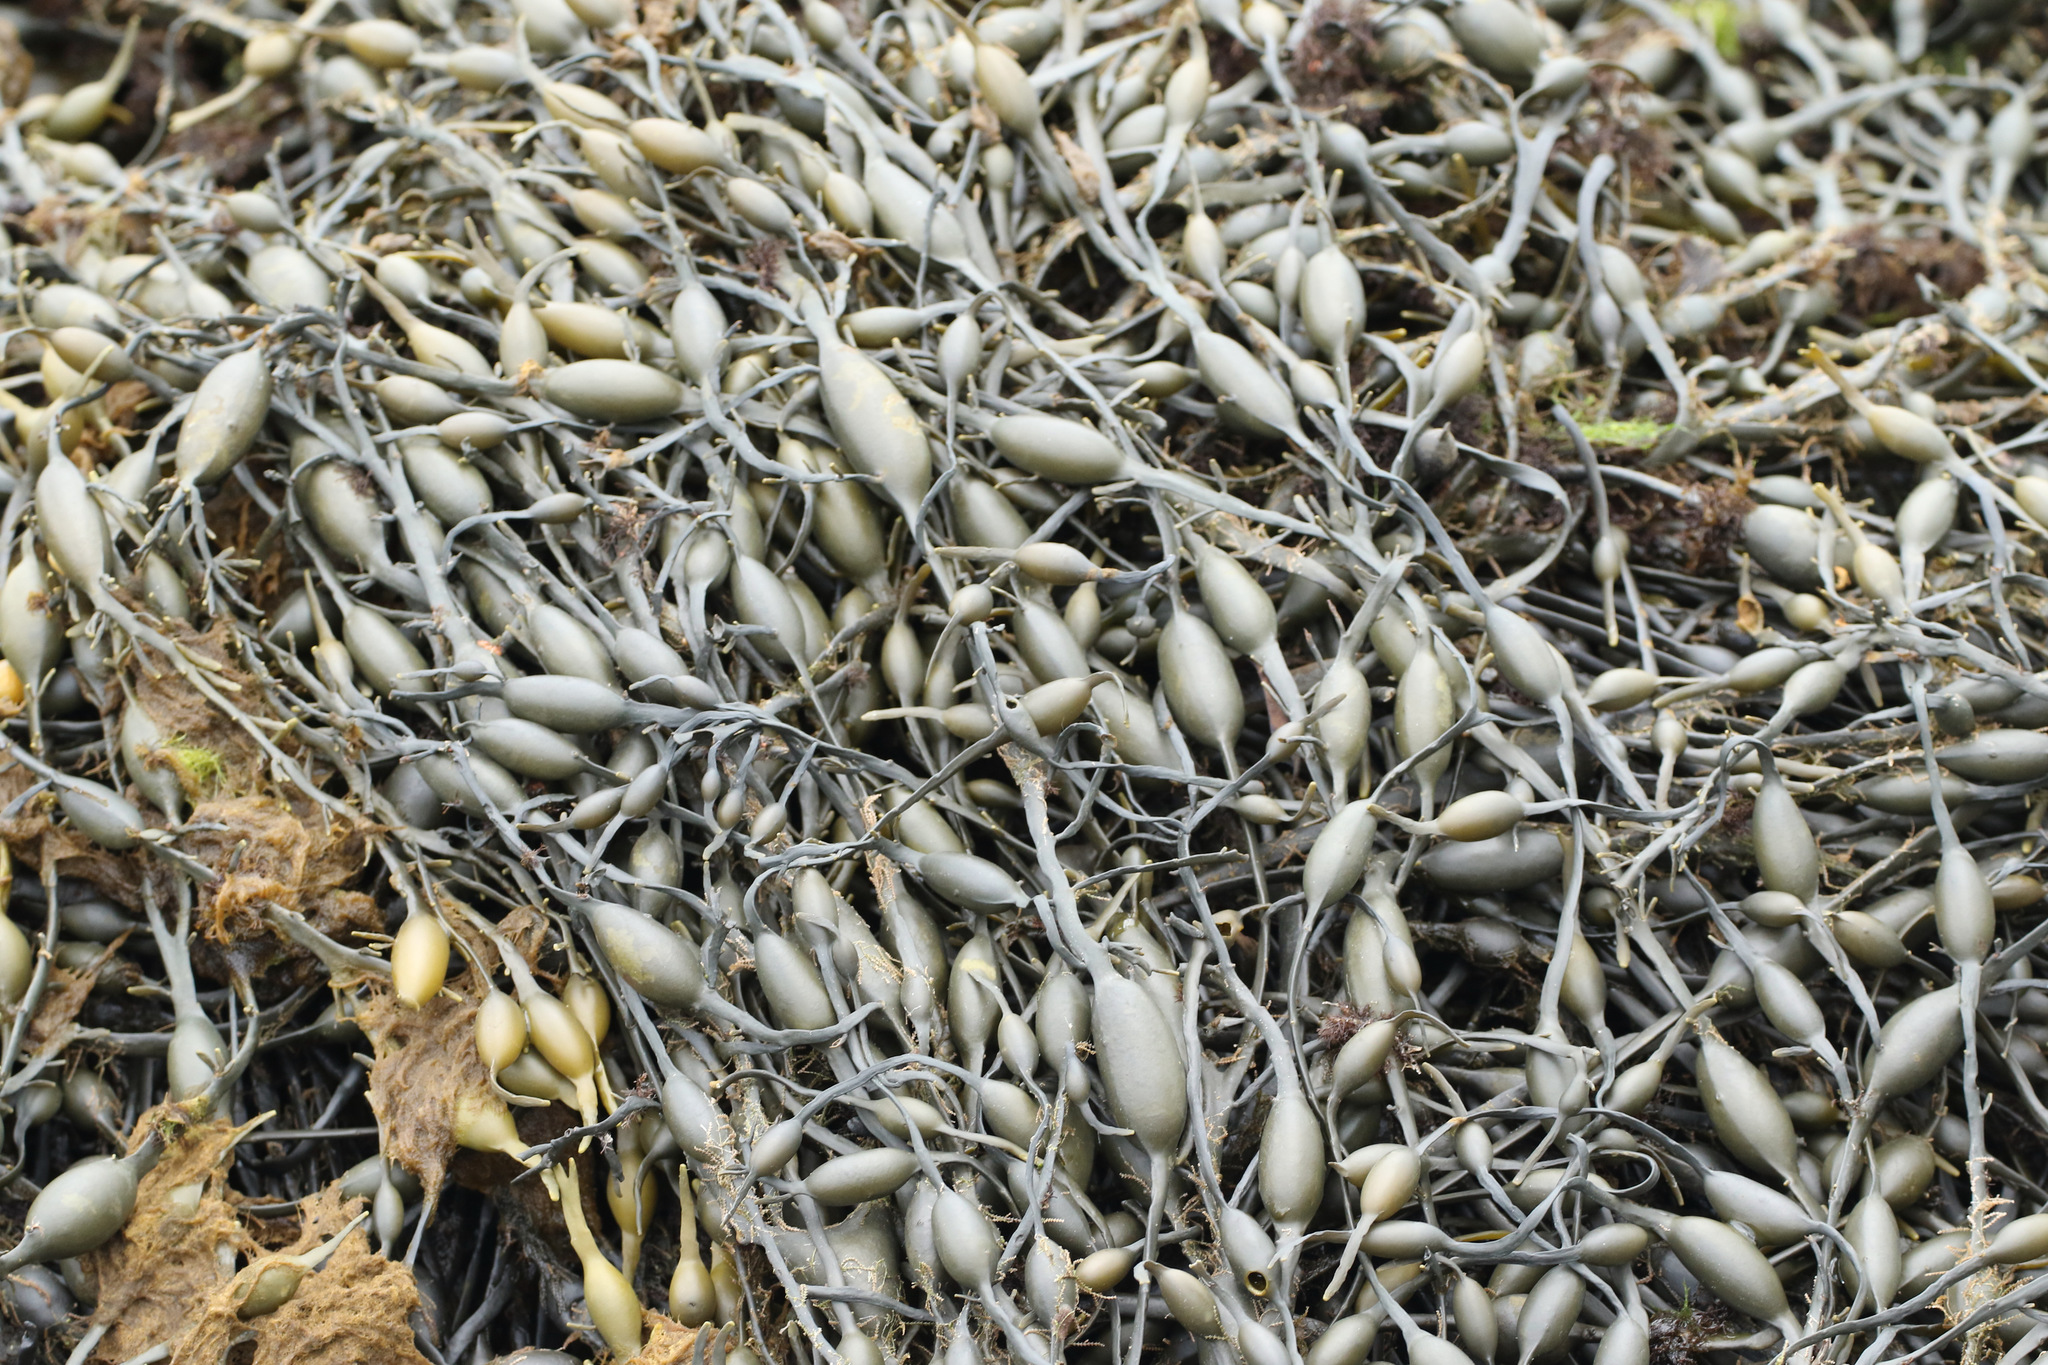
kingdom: Chromista
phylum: Ochrophyta
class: Phaeophyceae
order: Fucales
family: Fucaceae
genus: Ascophyllum
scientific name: Ascophyllum nodosum
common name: Knotted wrack
